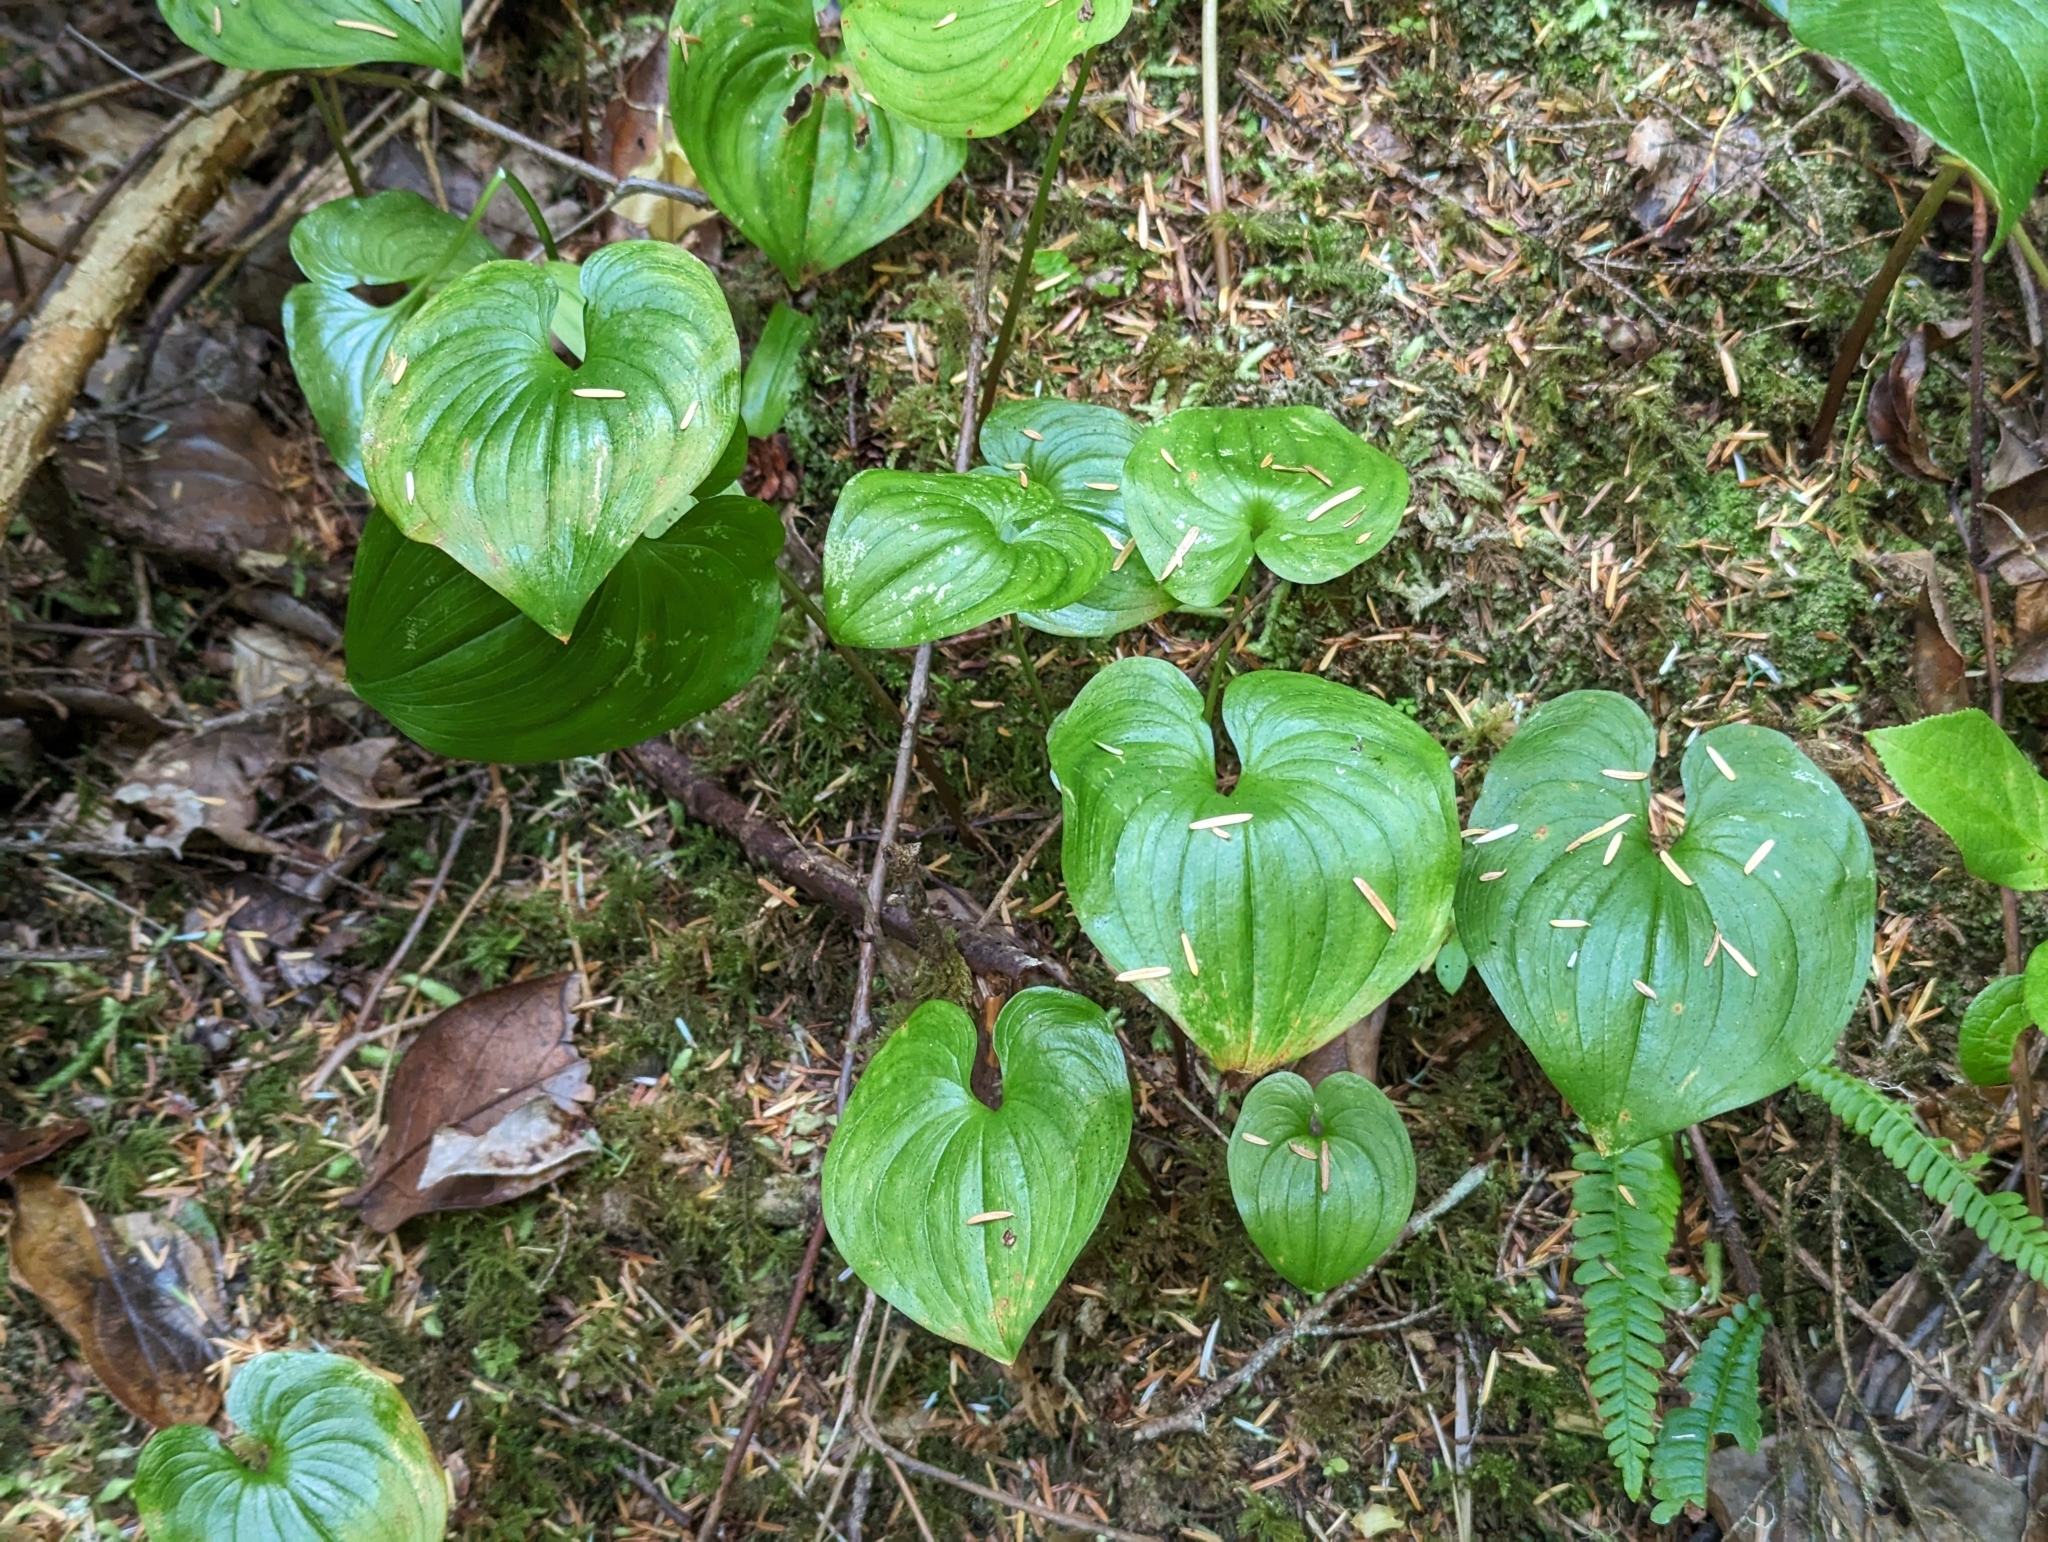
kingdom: Plantae
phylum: Tracheophyta
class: Liliopsida
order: Asparagales
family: Asparagaceae
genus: Maianthemum
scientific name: Maianthemum dilatatum
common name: False lily-of-the-valley
